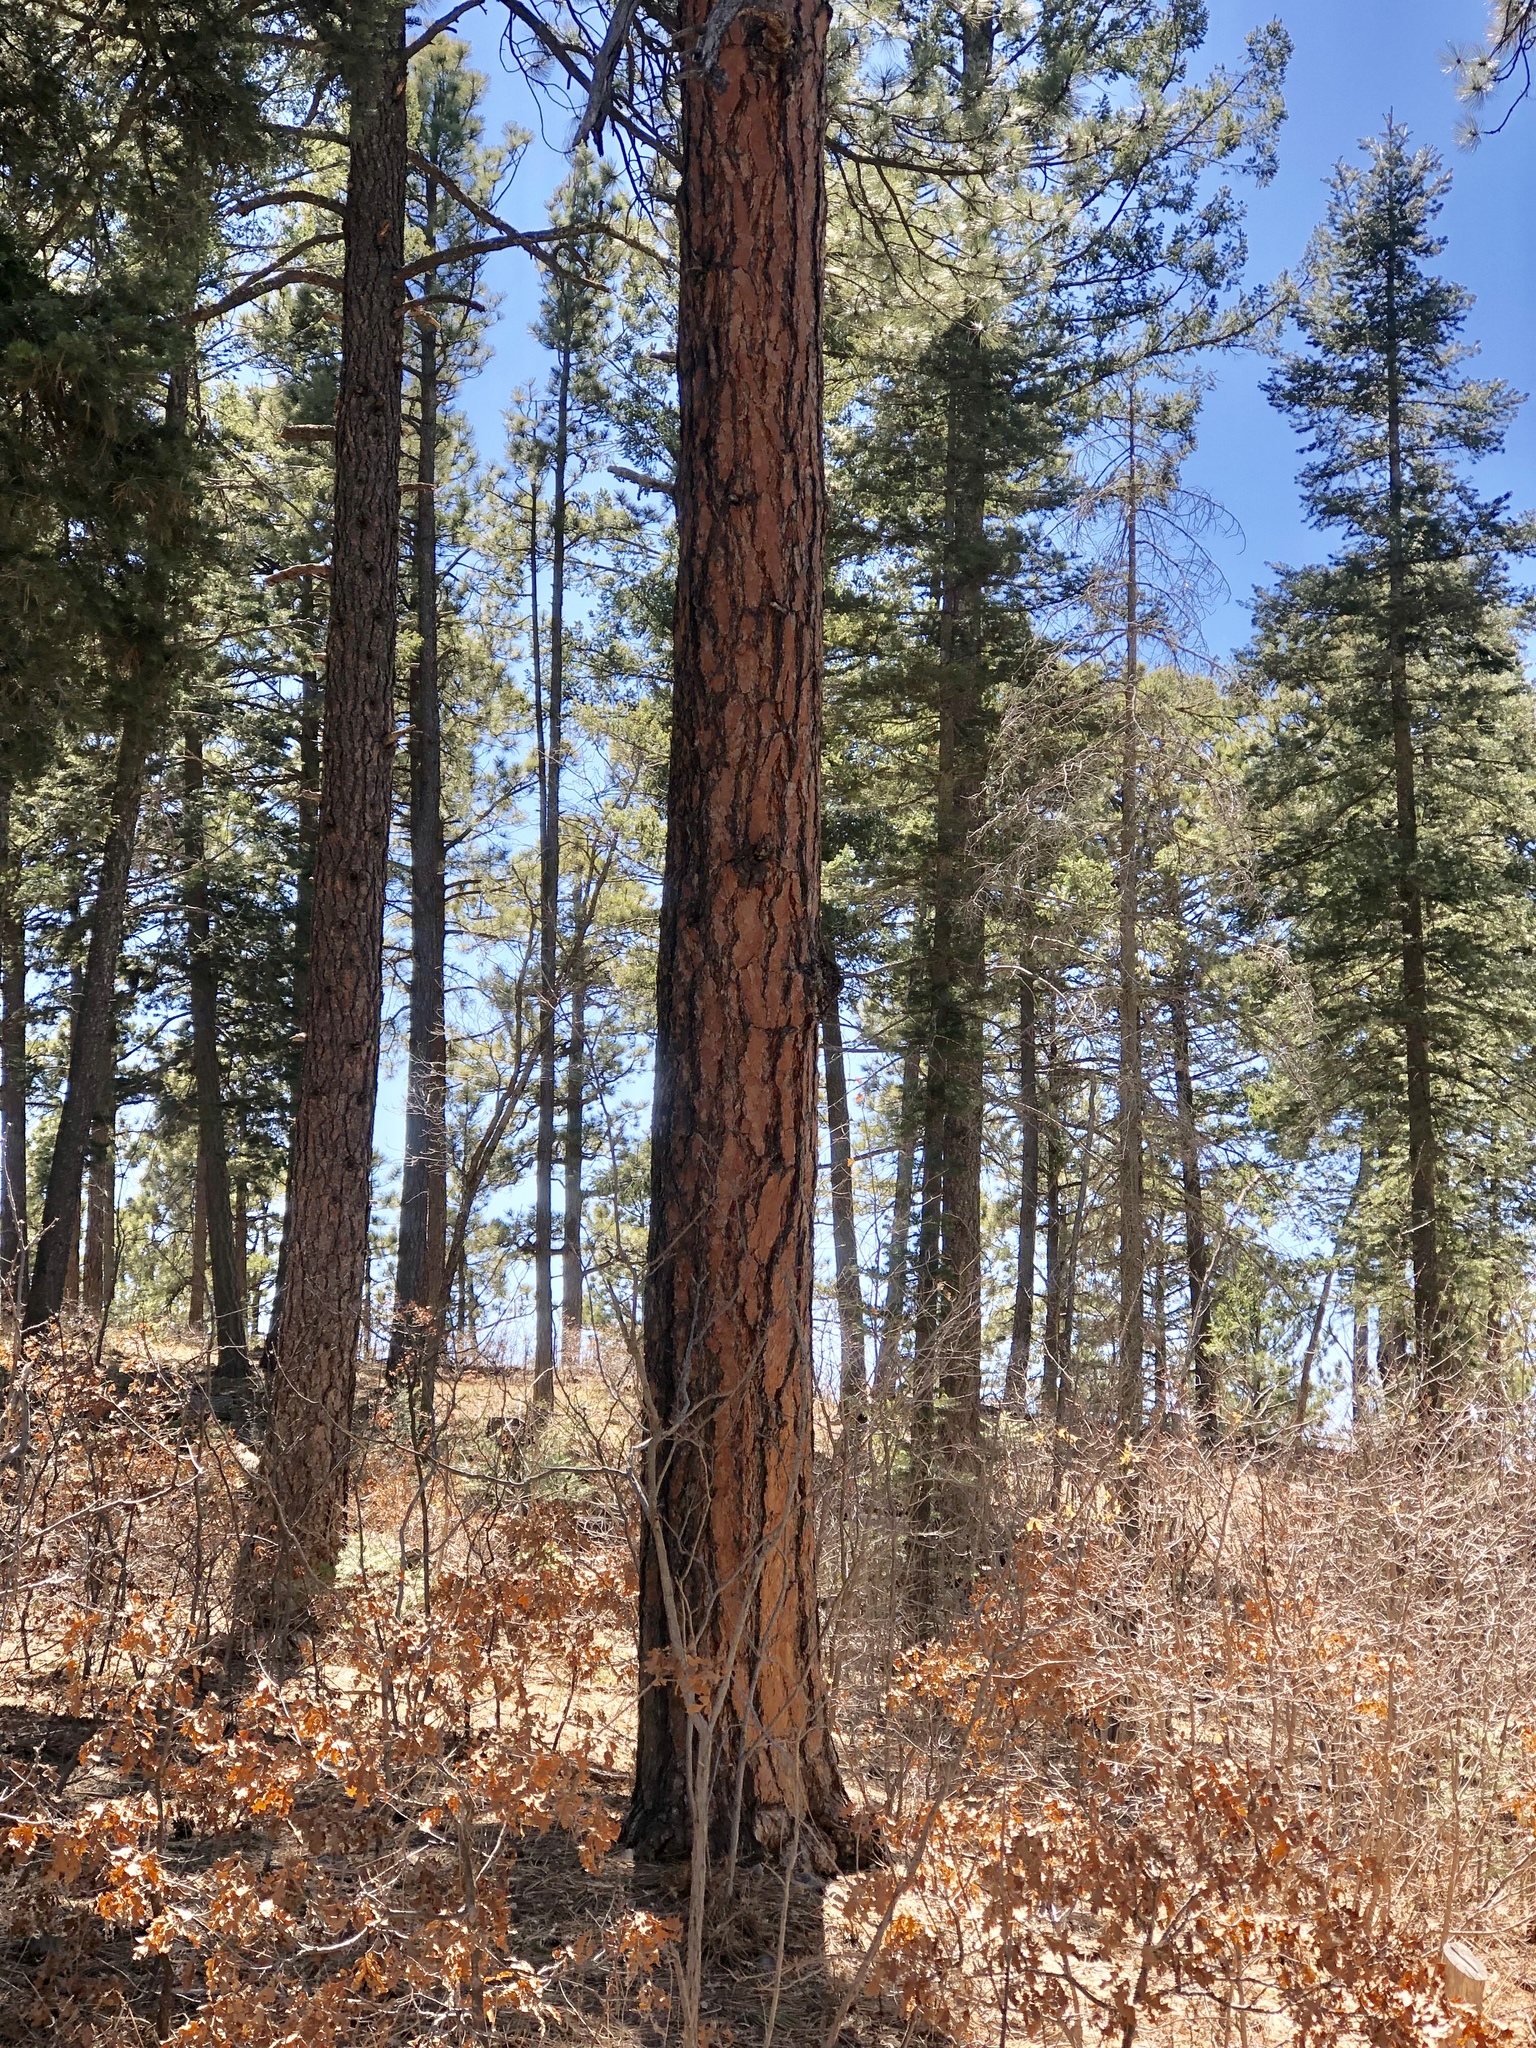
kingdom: Plantae
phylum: Tracheophyta
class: Pinopsida
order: Pinales
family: Pinaceae
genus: Pinus
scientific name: Pinus ponderosa
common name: Western yellow-pine
